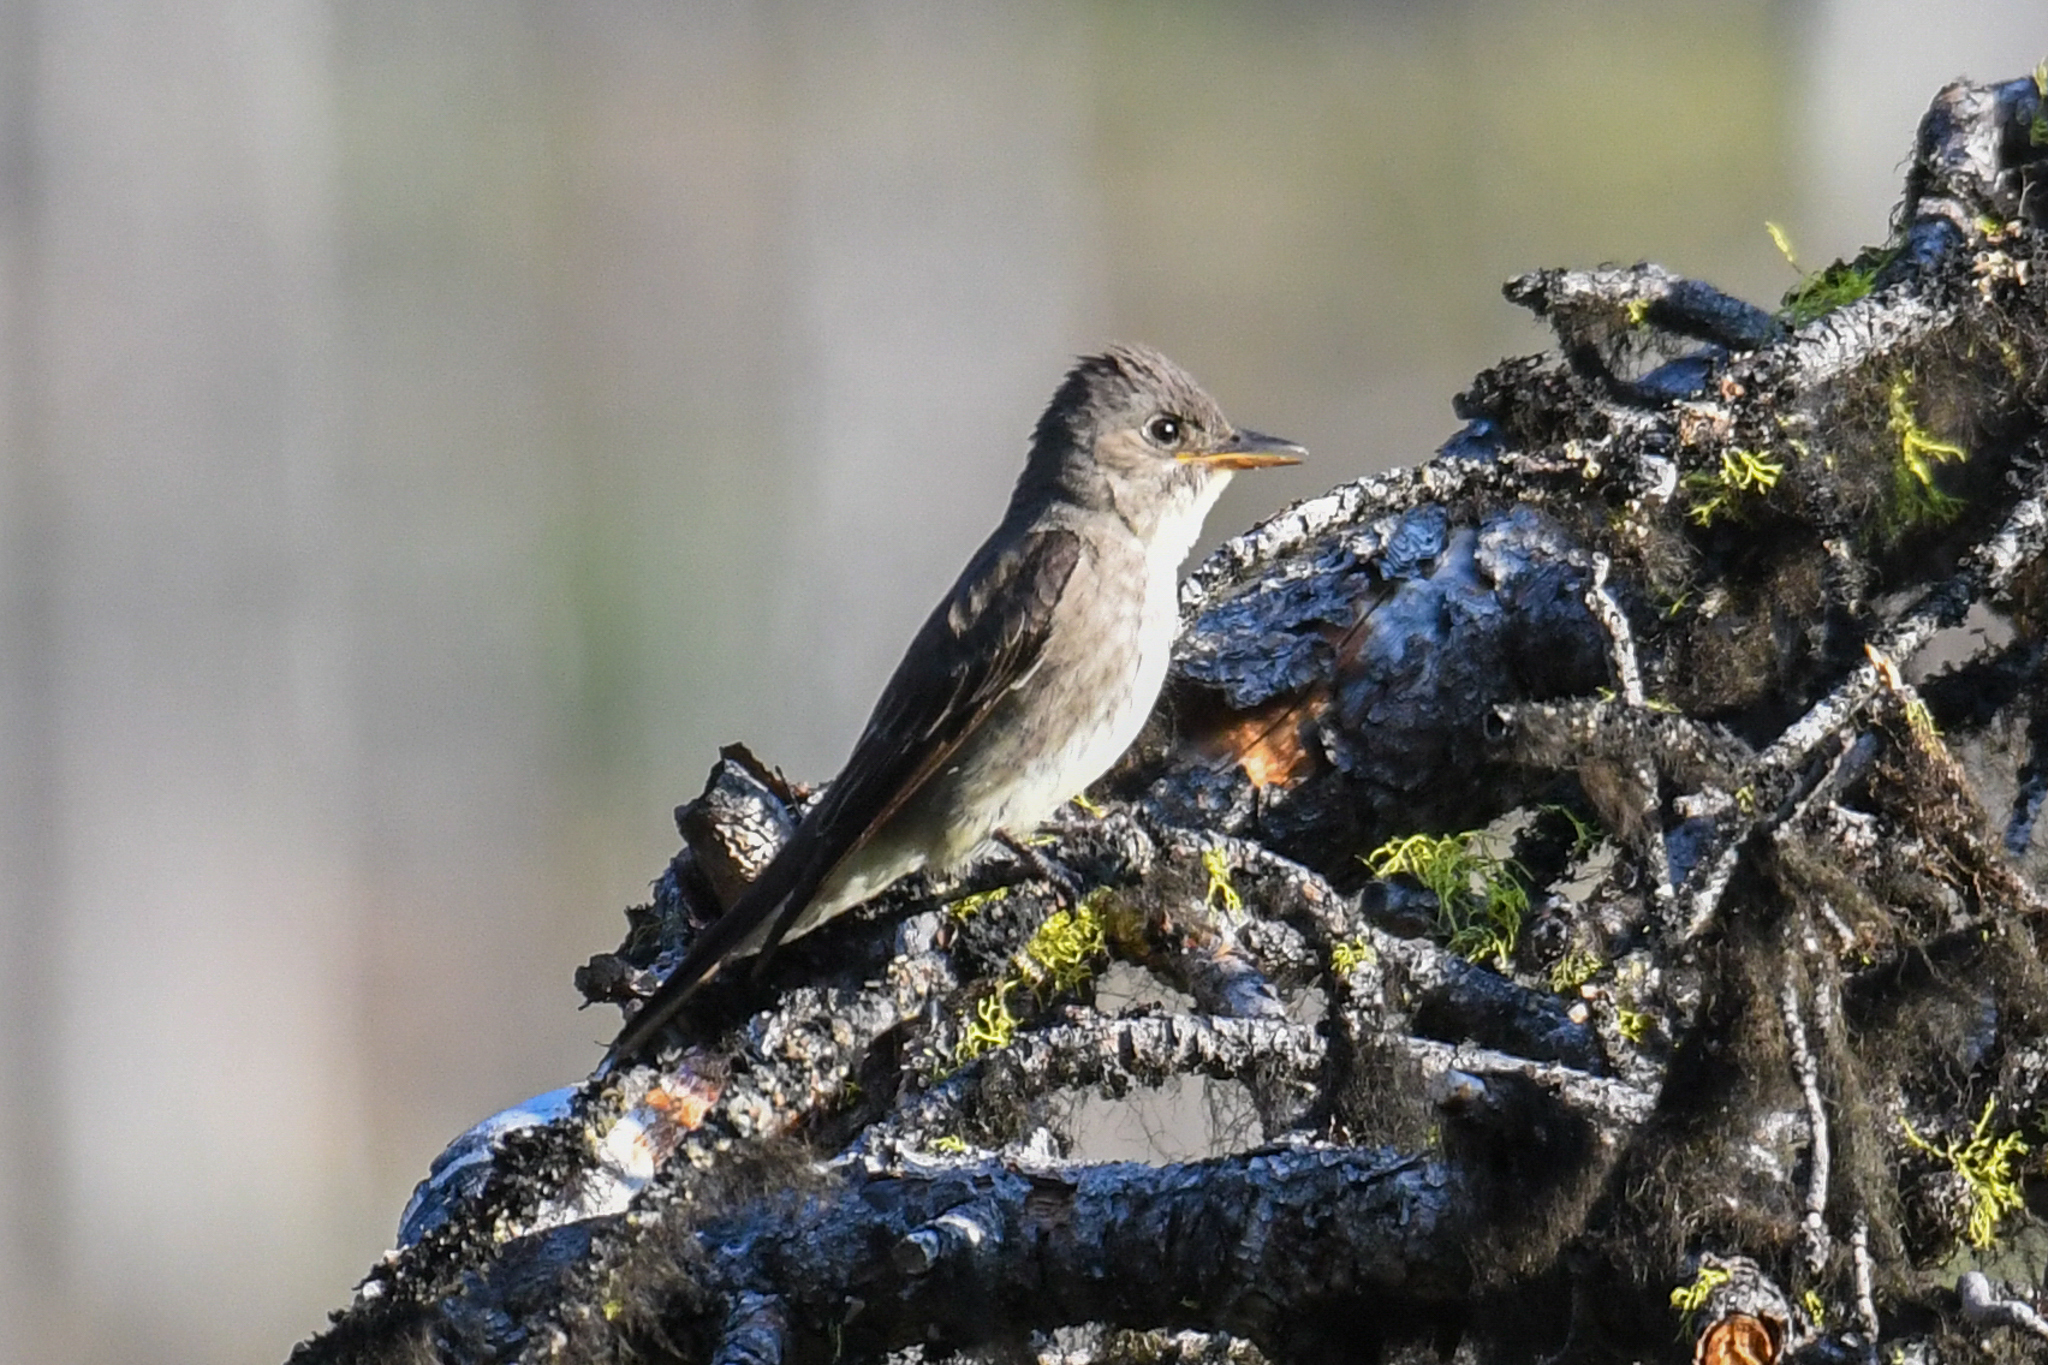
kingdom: Animalia
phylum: Chordata
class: Aves
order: Passeriformes
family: Tyrannidae
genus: Contopus
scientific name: Contopus cooperi
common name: Olive-sided flycatcher
